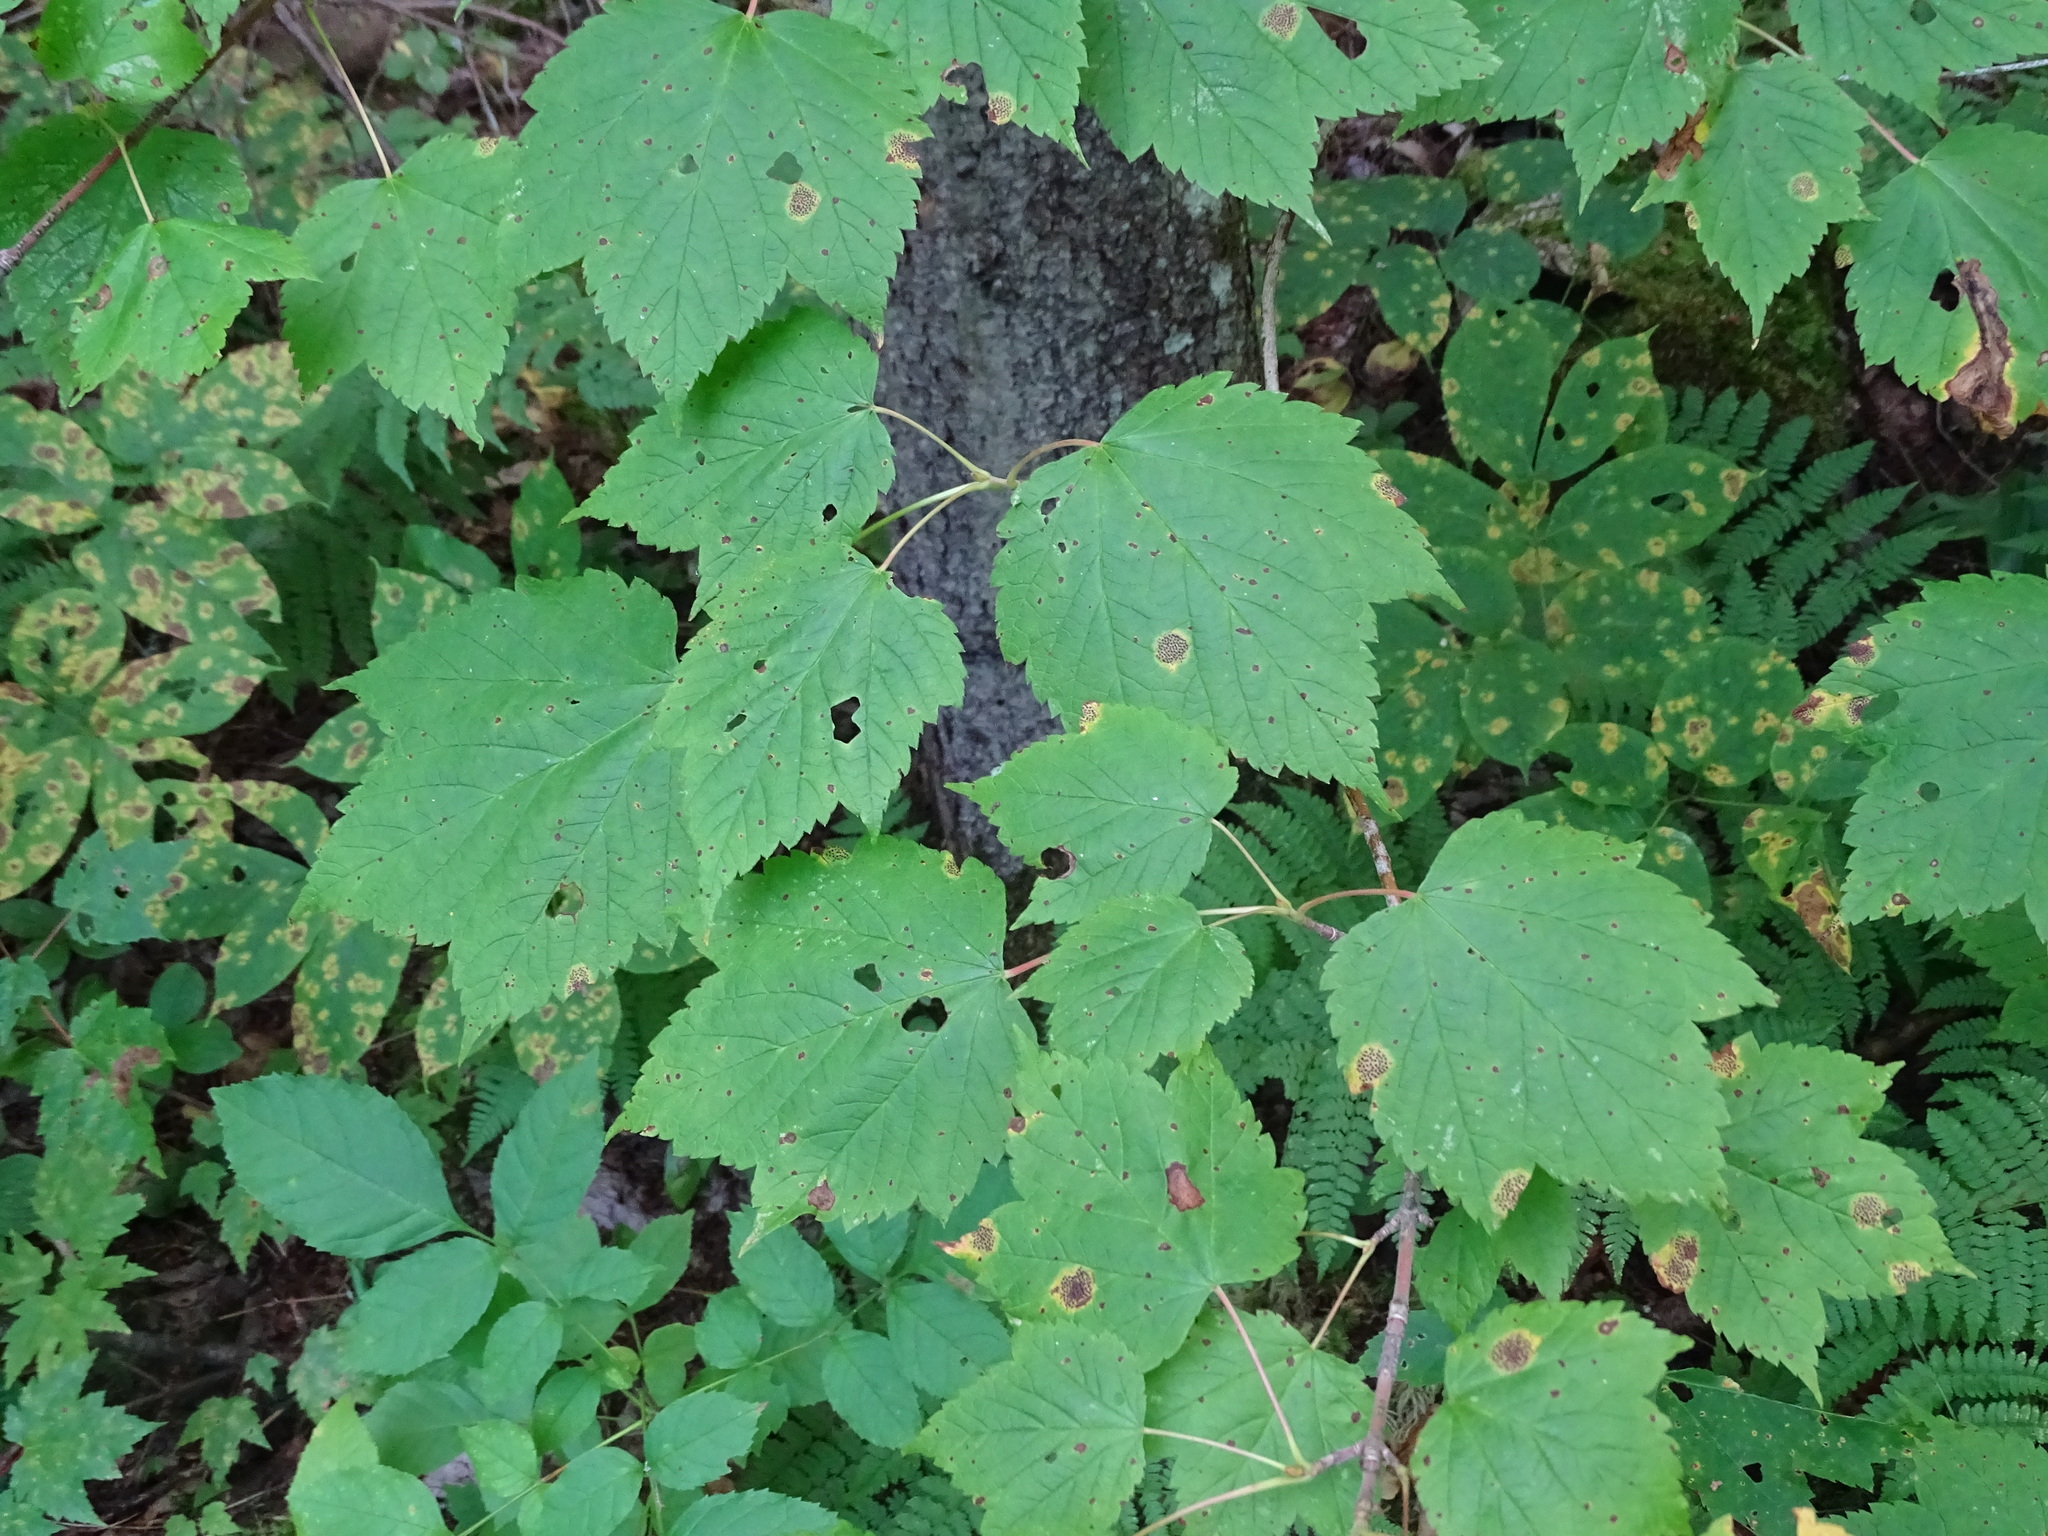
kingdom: Plantae
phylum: Tracheophyta
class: Magnoliopsida
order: Sapindales
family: Sapindaceae
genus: Acer
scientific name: Acer spicatum
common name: Mountain maple
